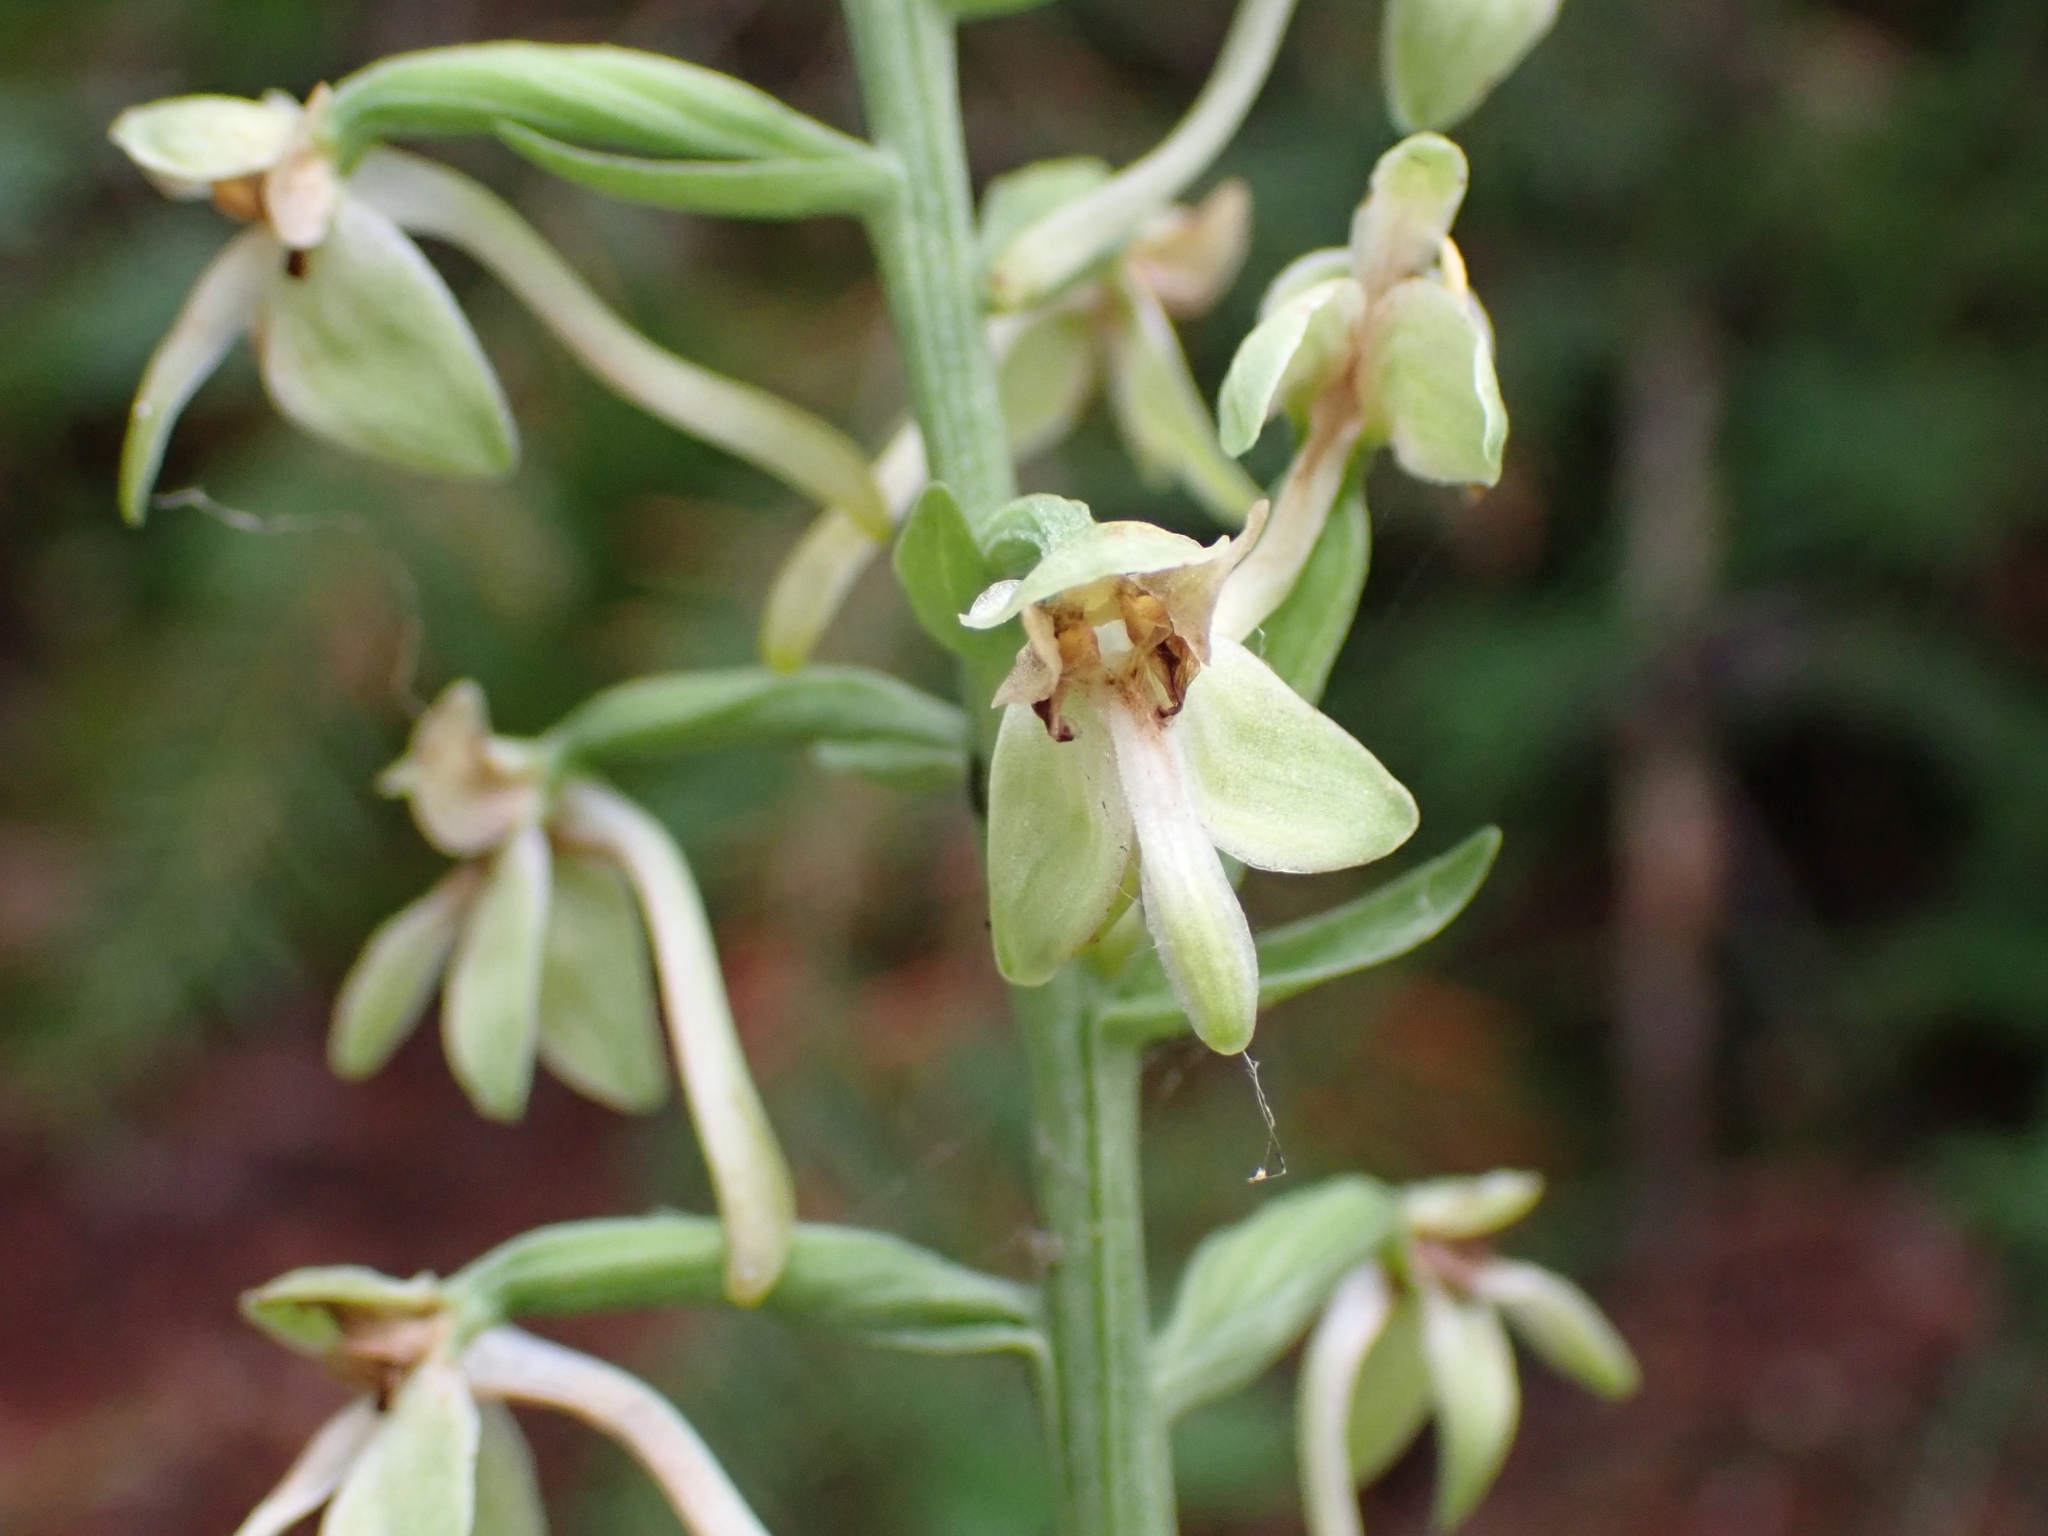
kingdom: Plantae
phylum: Tracheophyta
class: Liliopsida
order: Asparagales
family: Orchidaceae
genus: Platanthera
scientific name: Platanthera orbiculata
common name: Large round-leaved orchid
